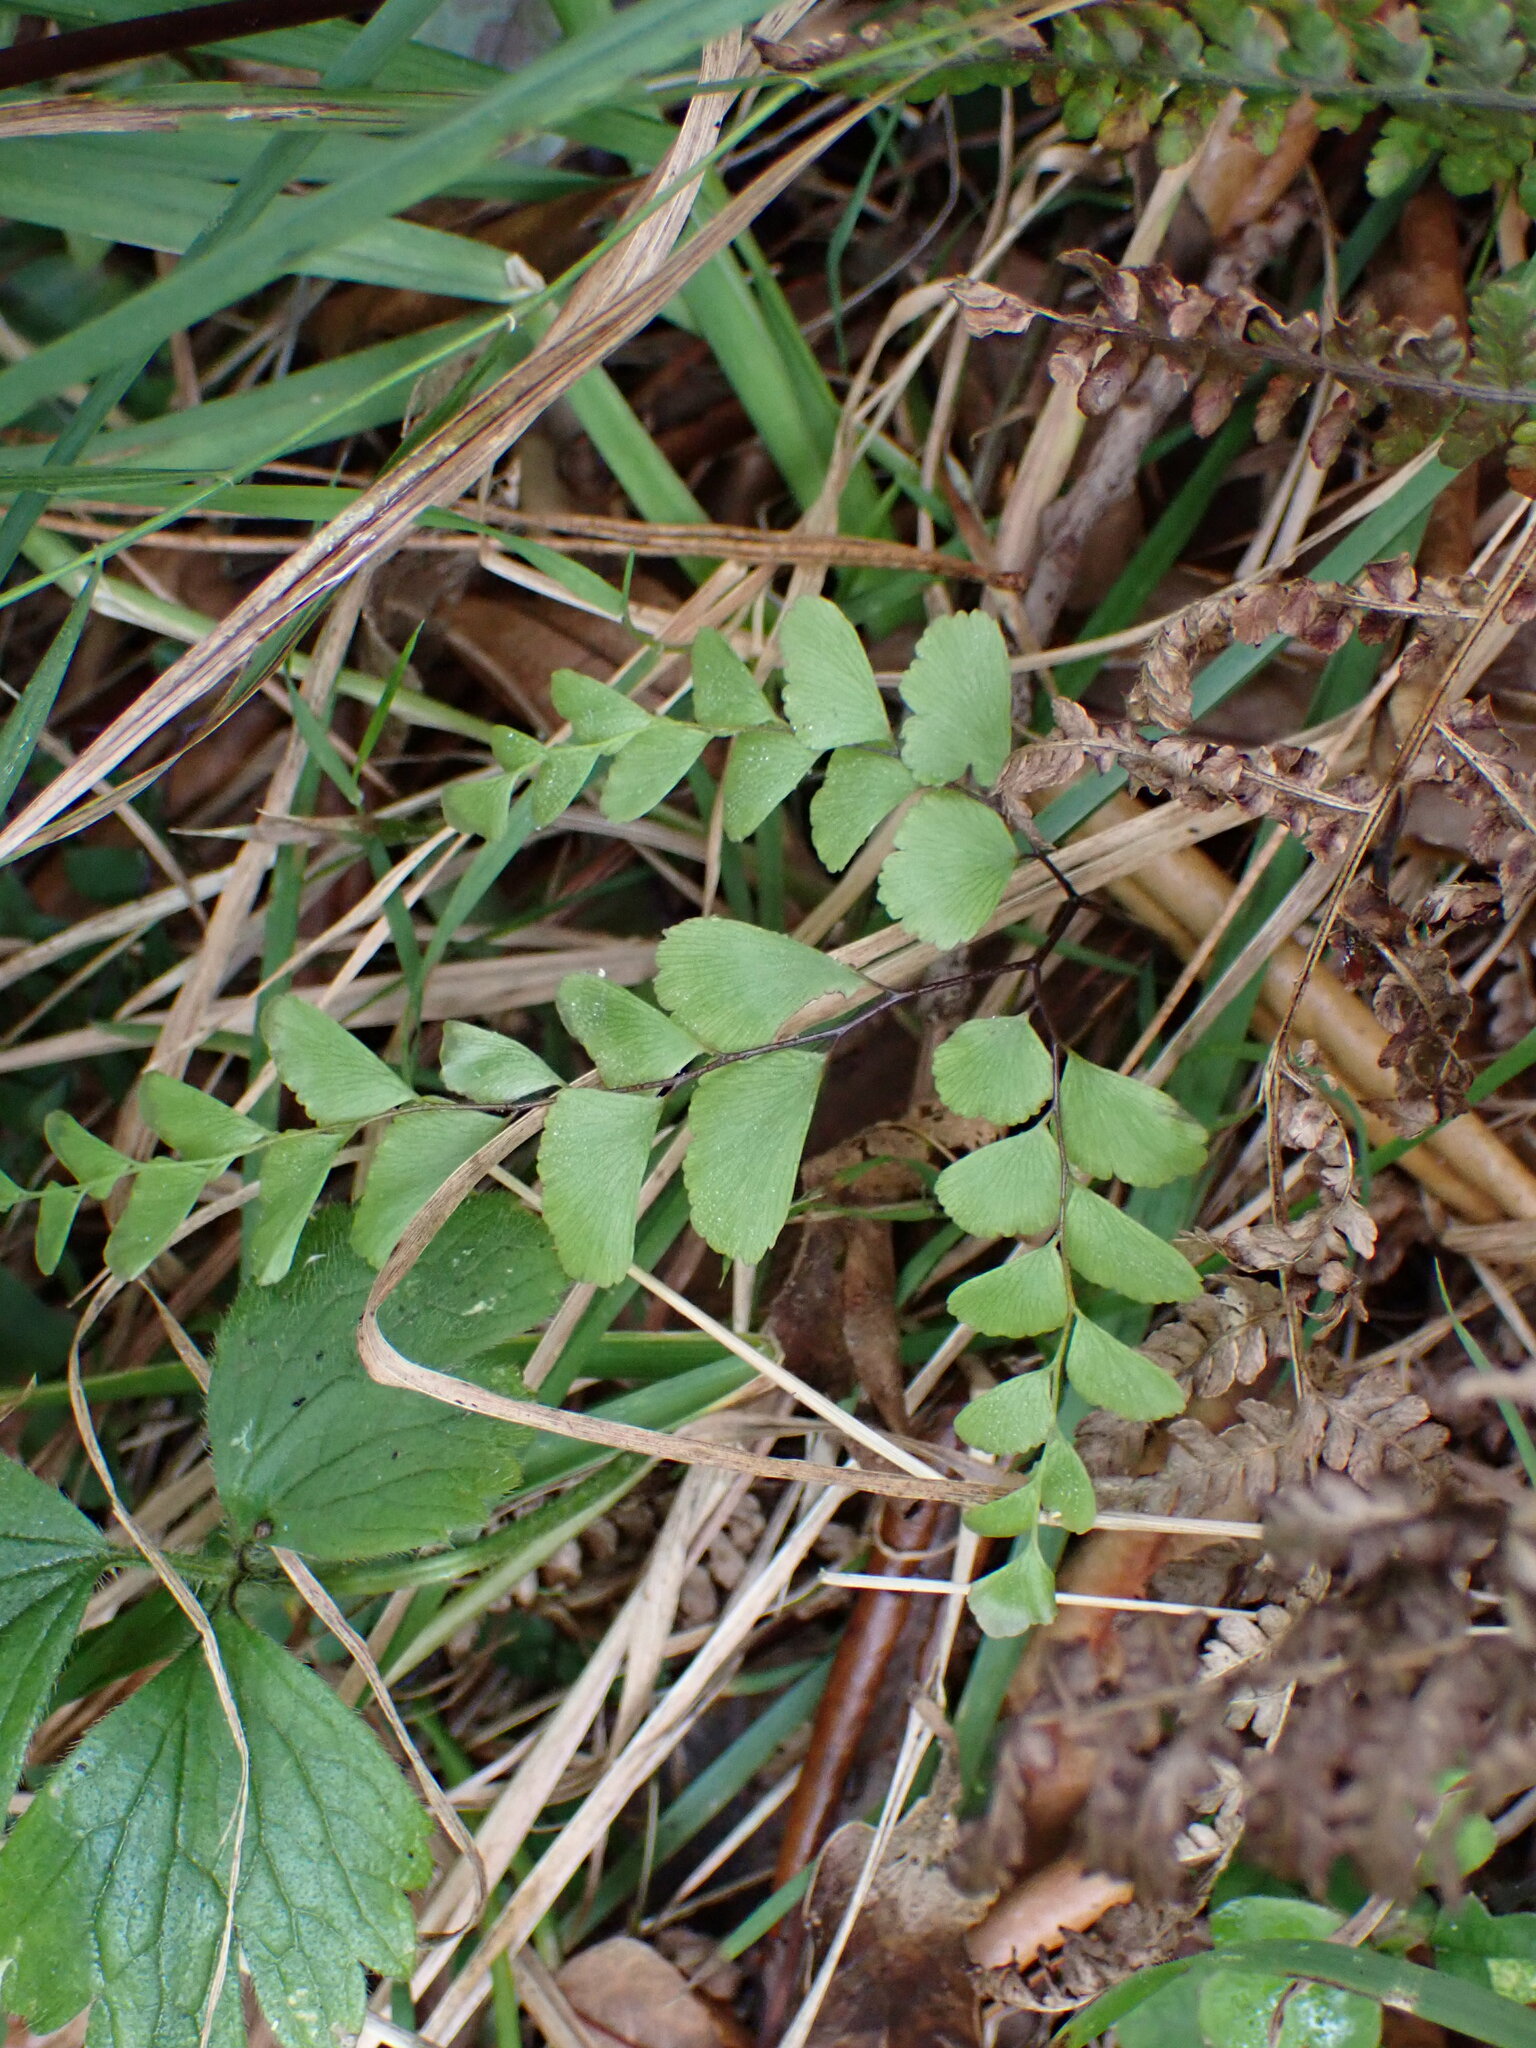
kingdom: Plantae
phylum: Tracheophyta
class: Polypodiopsida
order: Polypodiales
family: Pteridaceae
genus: Adiantum
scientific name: Adiantum cunninghamii
